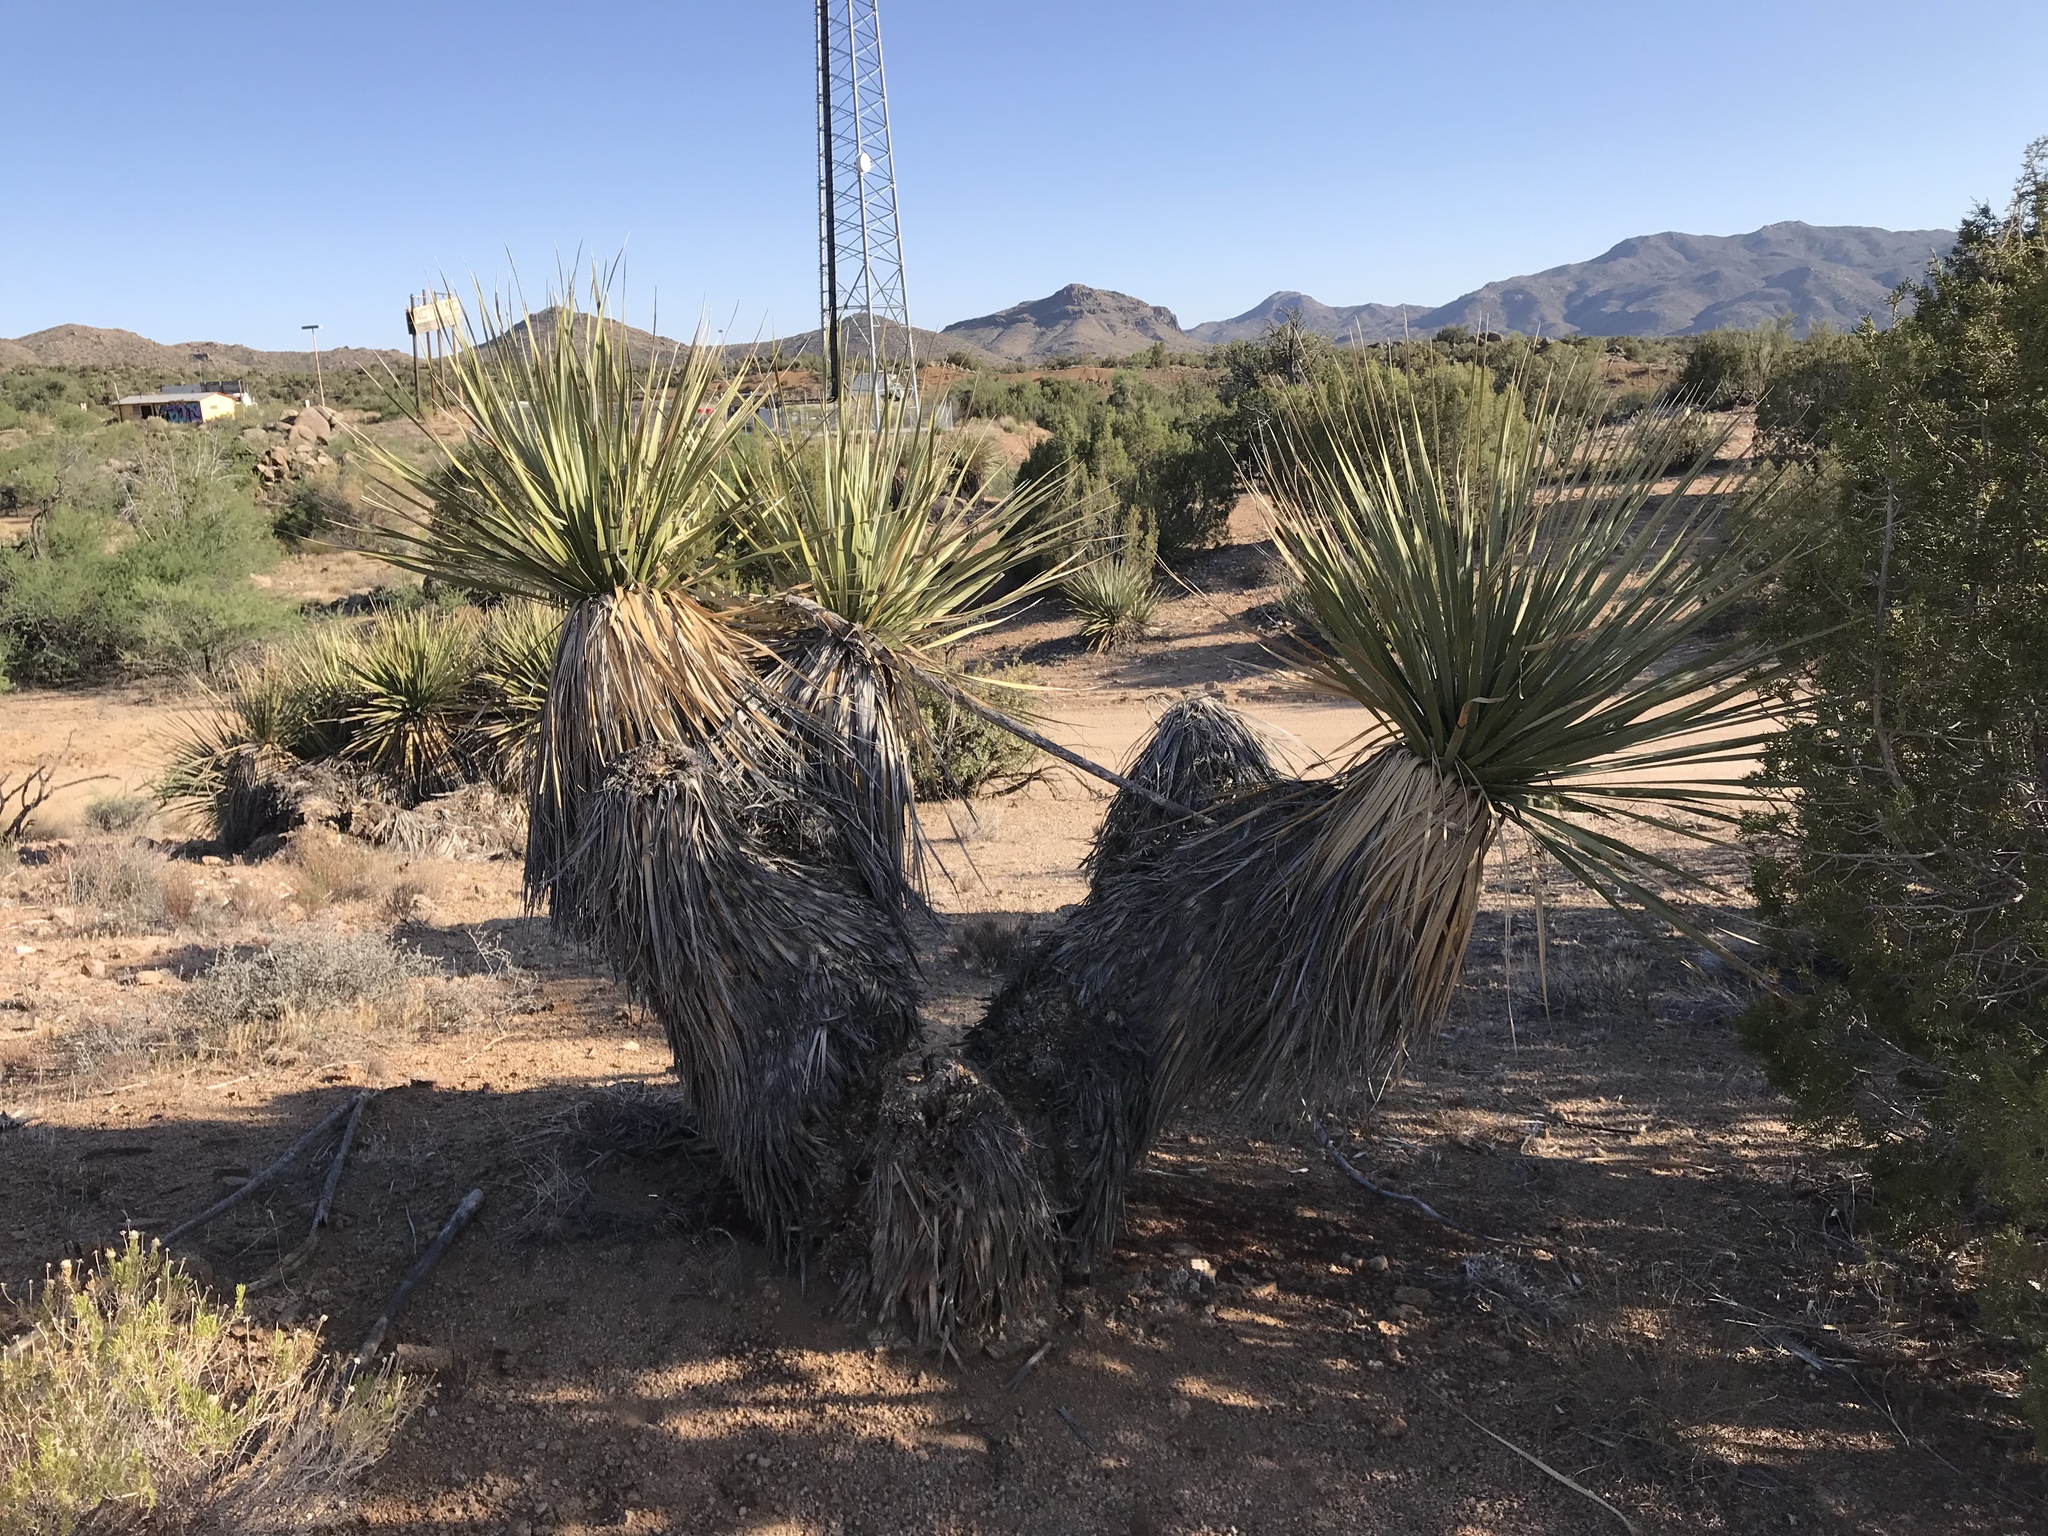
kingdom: Plantae
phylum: Tracheophyta
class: Liliopsida
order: Asparagales
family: Asparagaceae
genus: Nolina
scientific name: Nolina bigelovii
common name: Bigelow bear-grass
